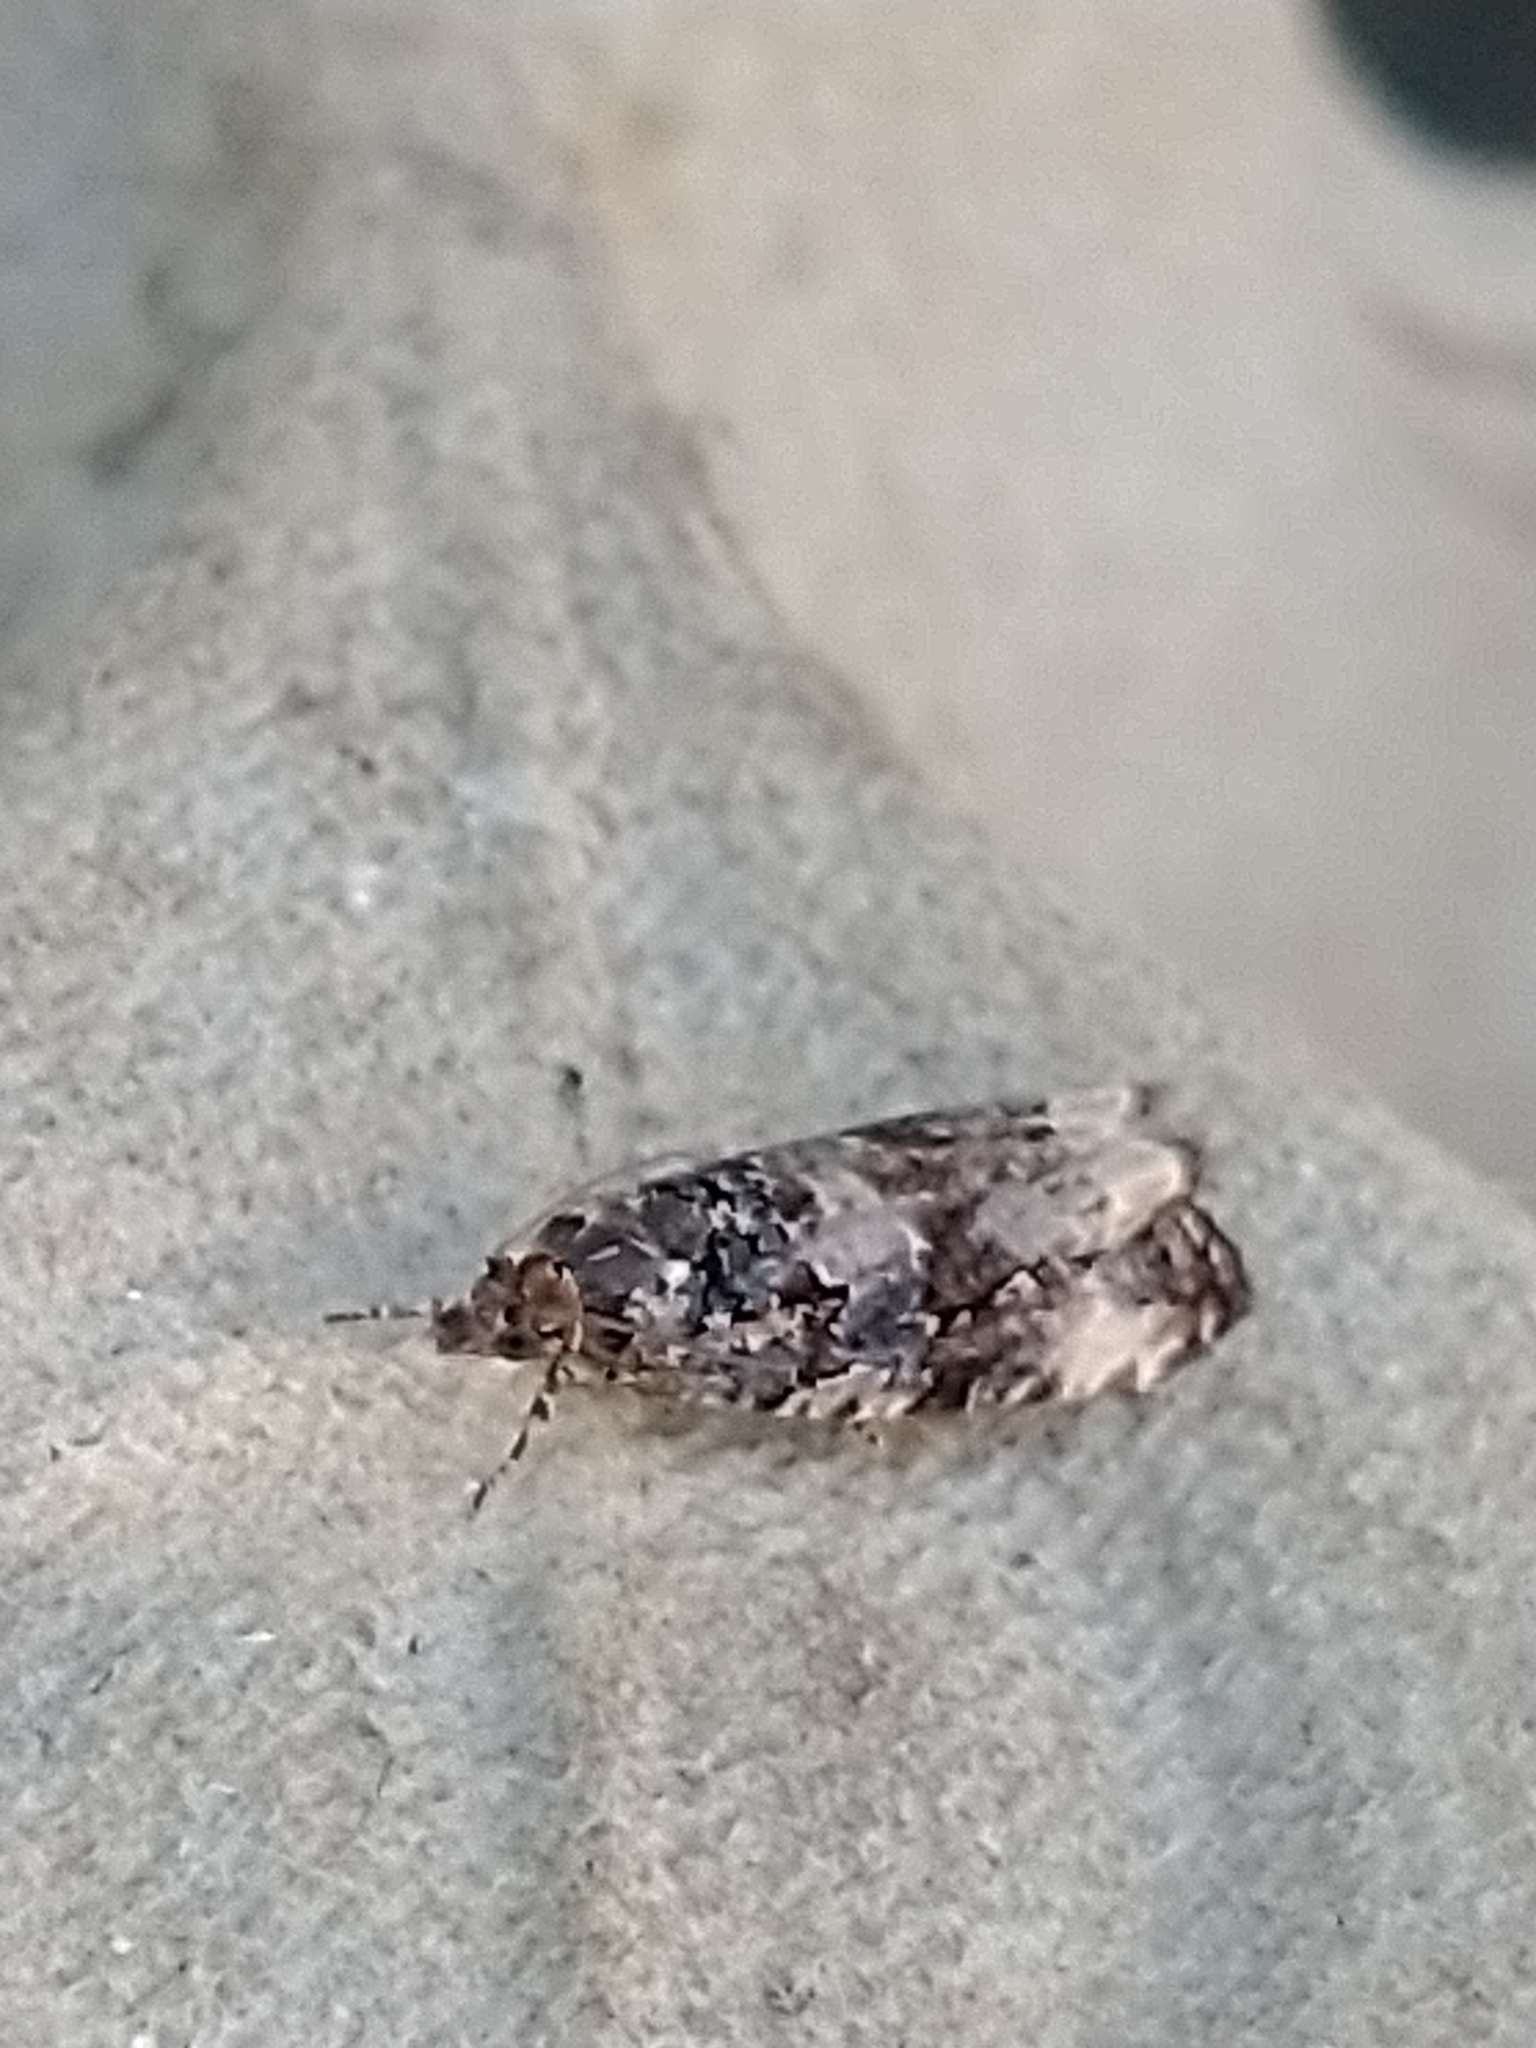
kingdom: Animalia
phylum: Arthropoda
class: Insecta
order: Lepidoptera
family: Tortricidae
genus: Endothenia
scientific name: Endothenia
